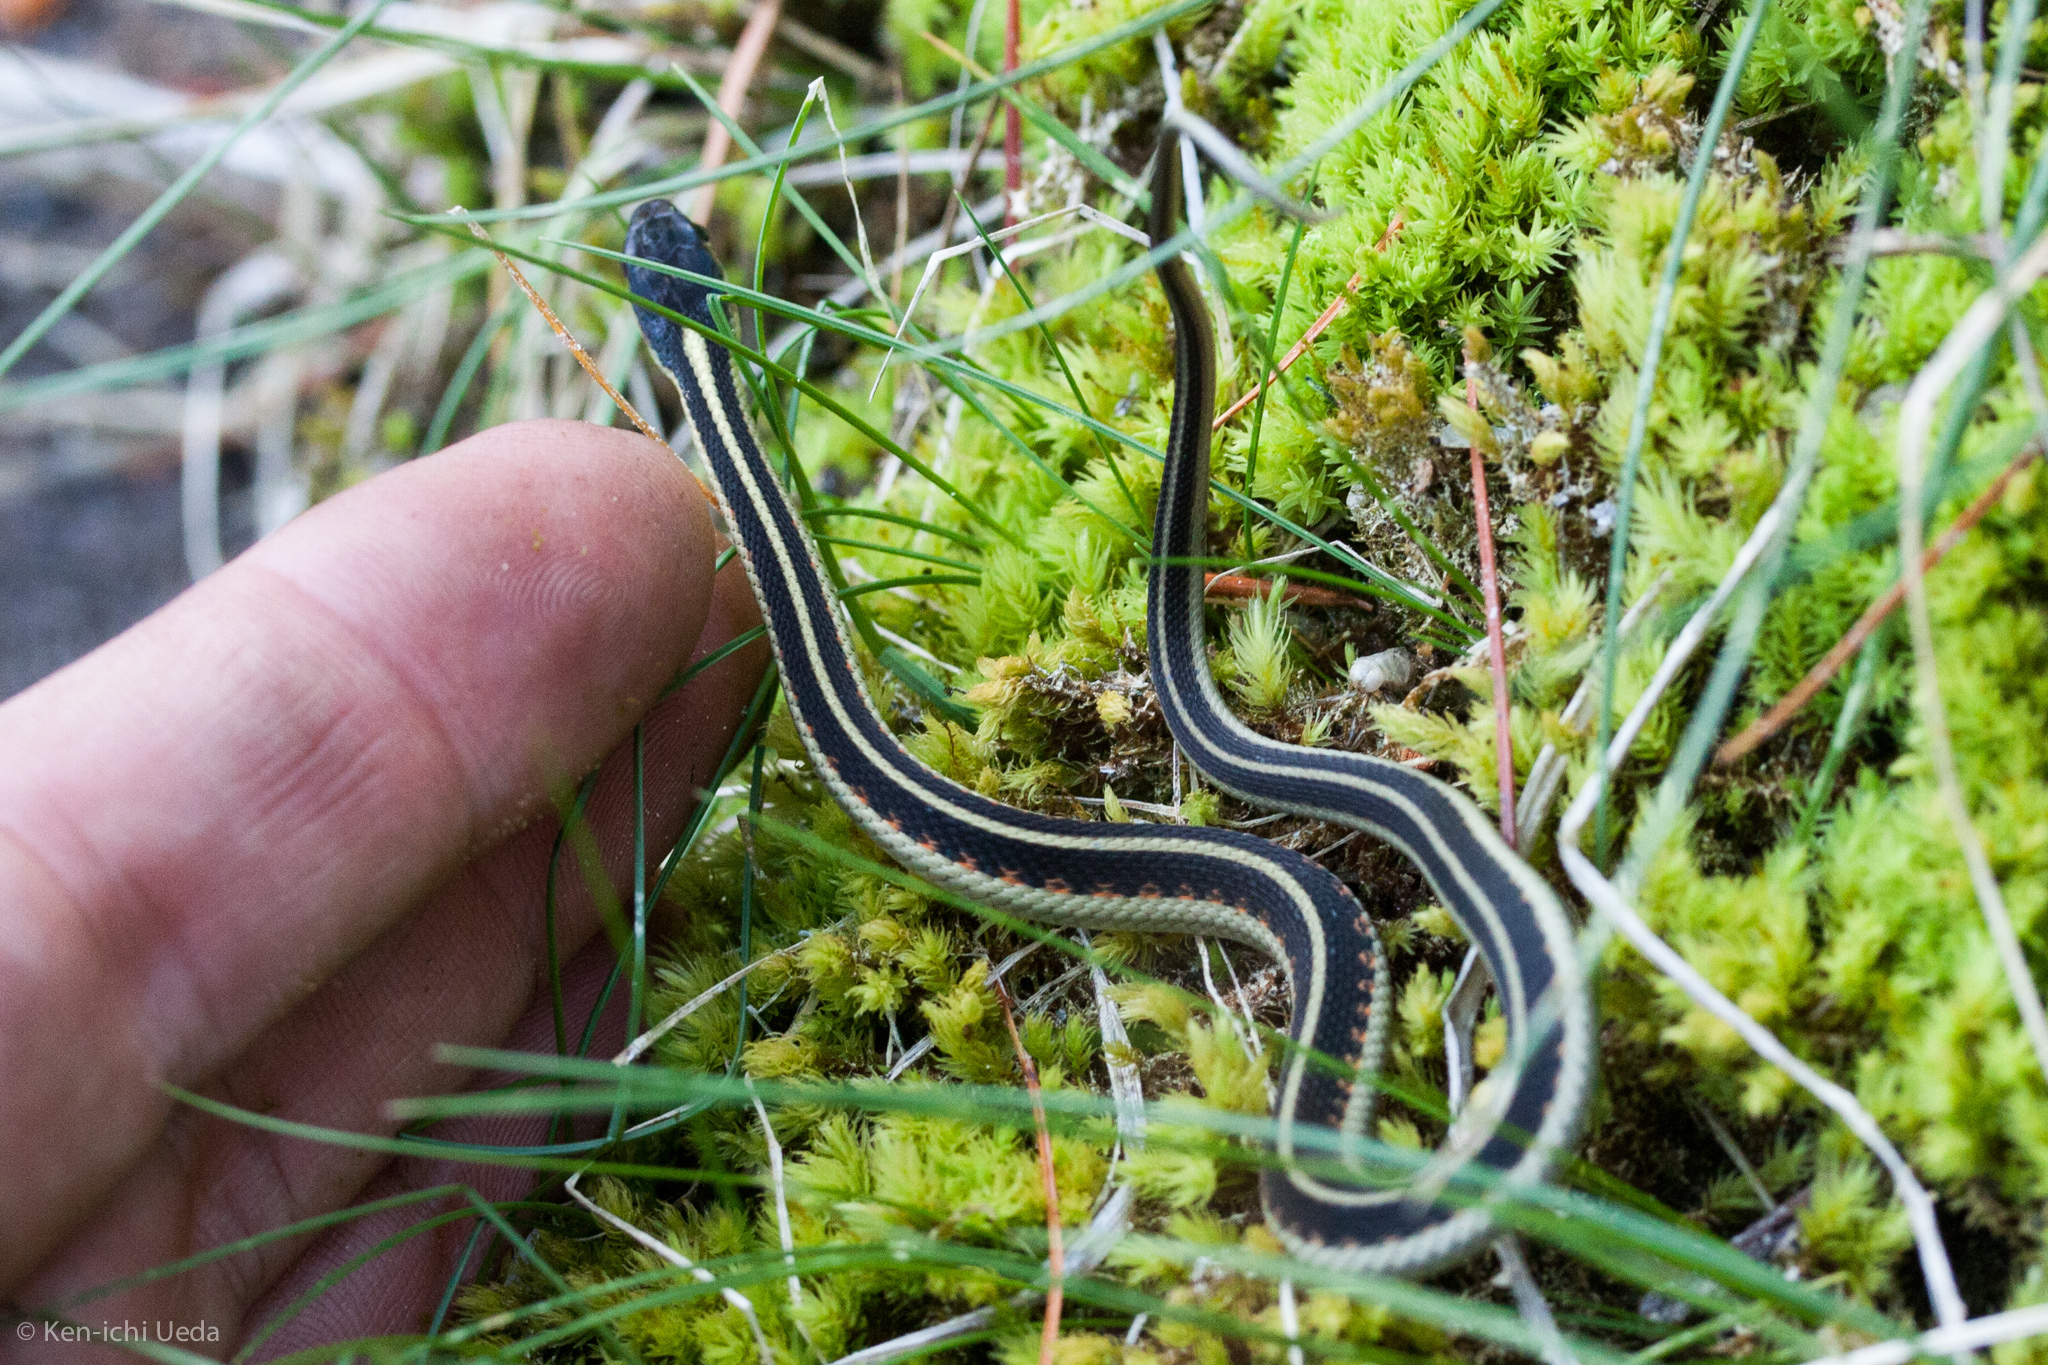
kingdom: Animalia
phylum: Chordata
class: Squamata
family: Colubridae
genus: Thamnophis
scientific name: Thamnophis sirtalis
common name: Common garter snake
